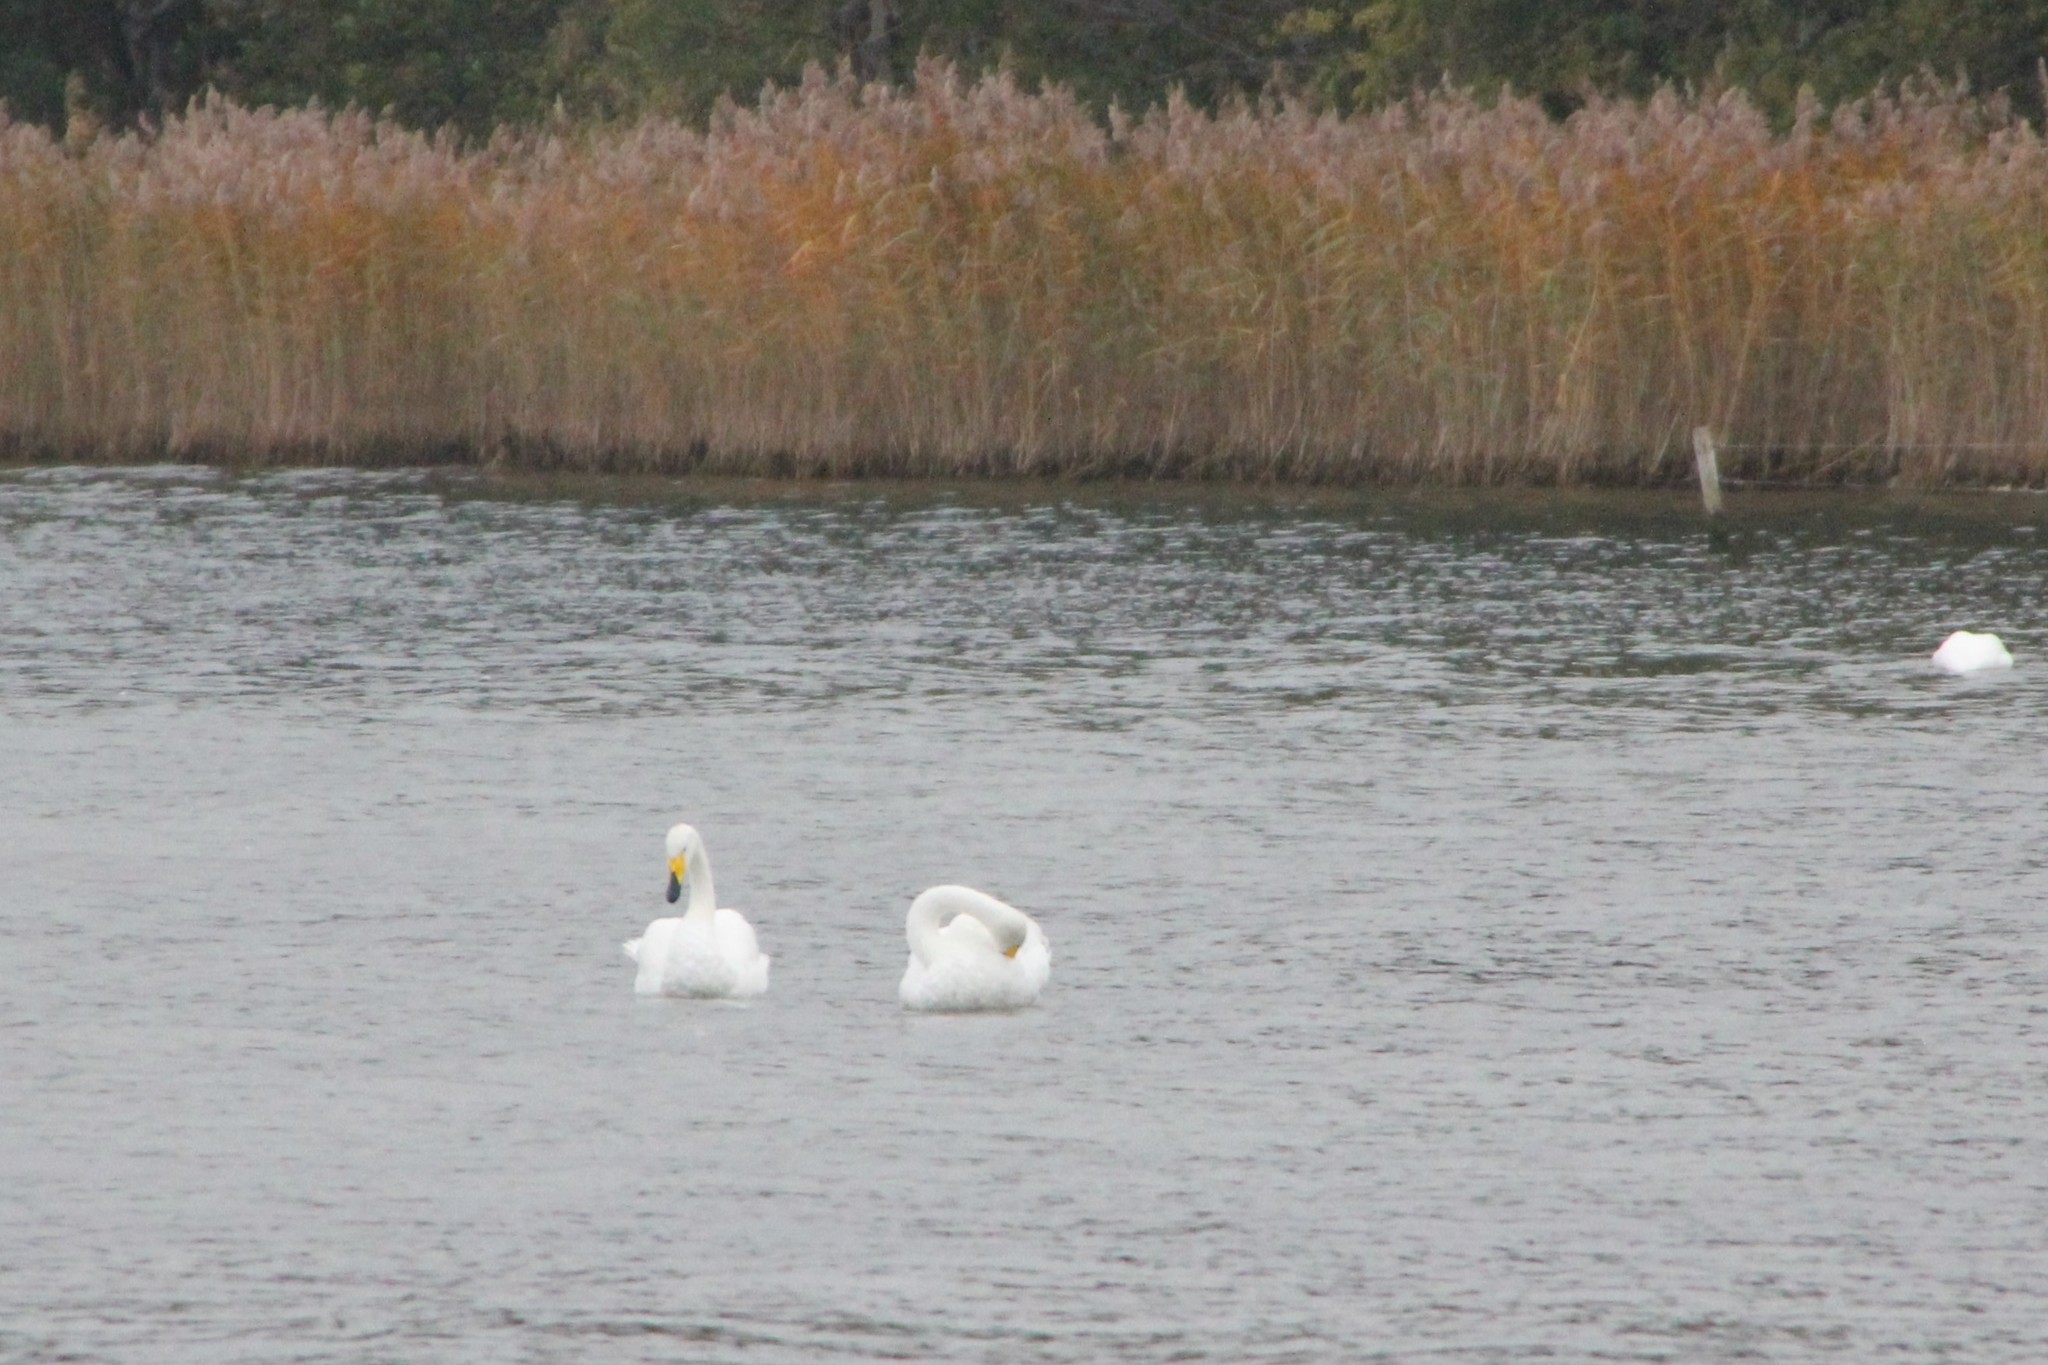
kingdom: Animalia
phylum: Chordata
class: Aves
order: Anseriformes
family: Anatidae
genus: Cygnus
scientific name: Cygnus cygnus
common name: Whooper swan
